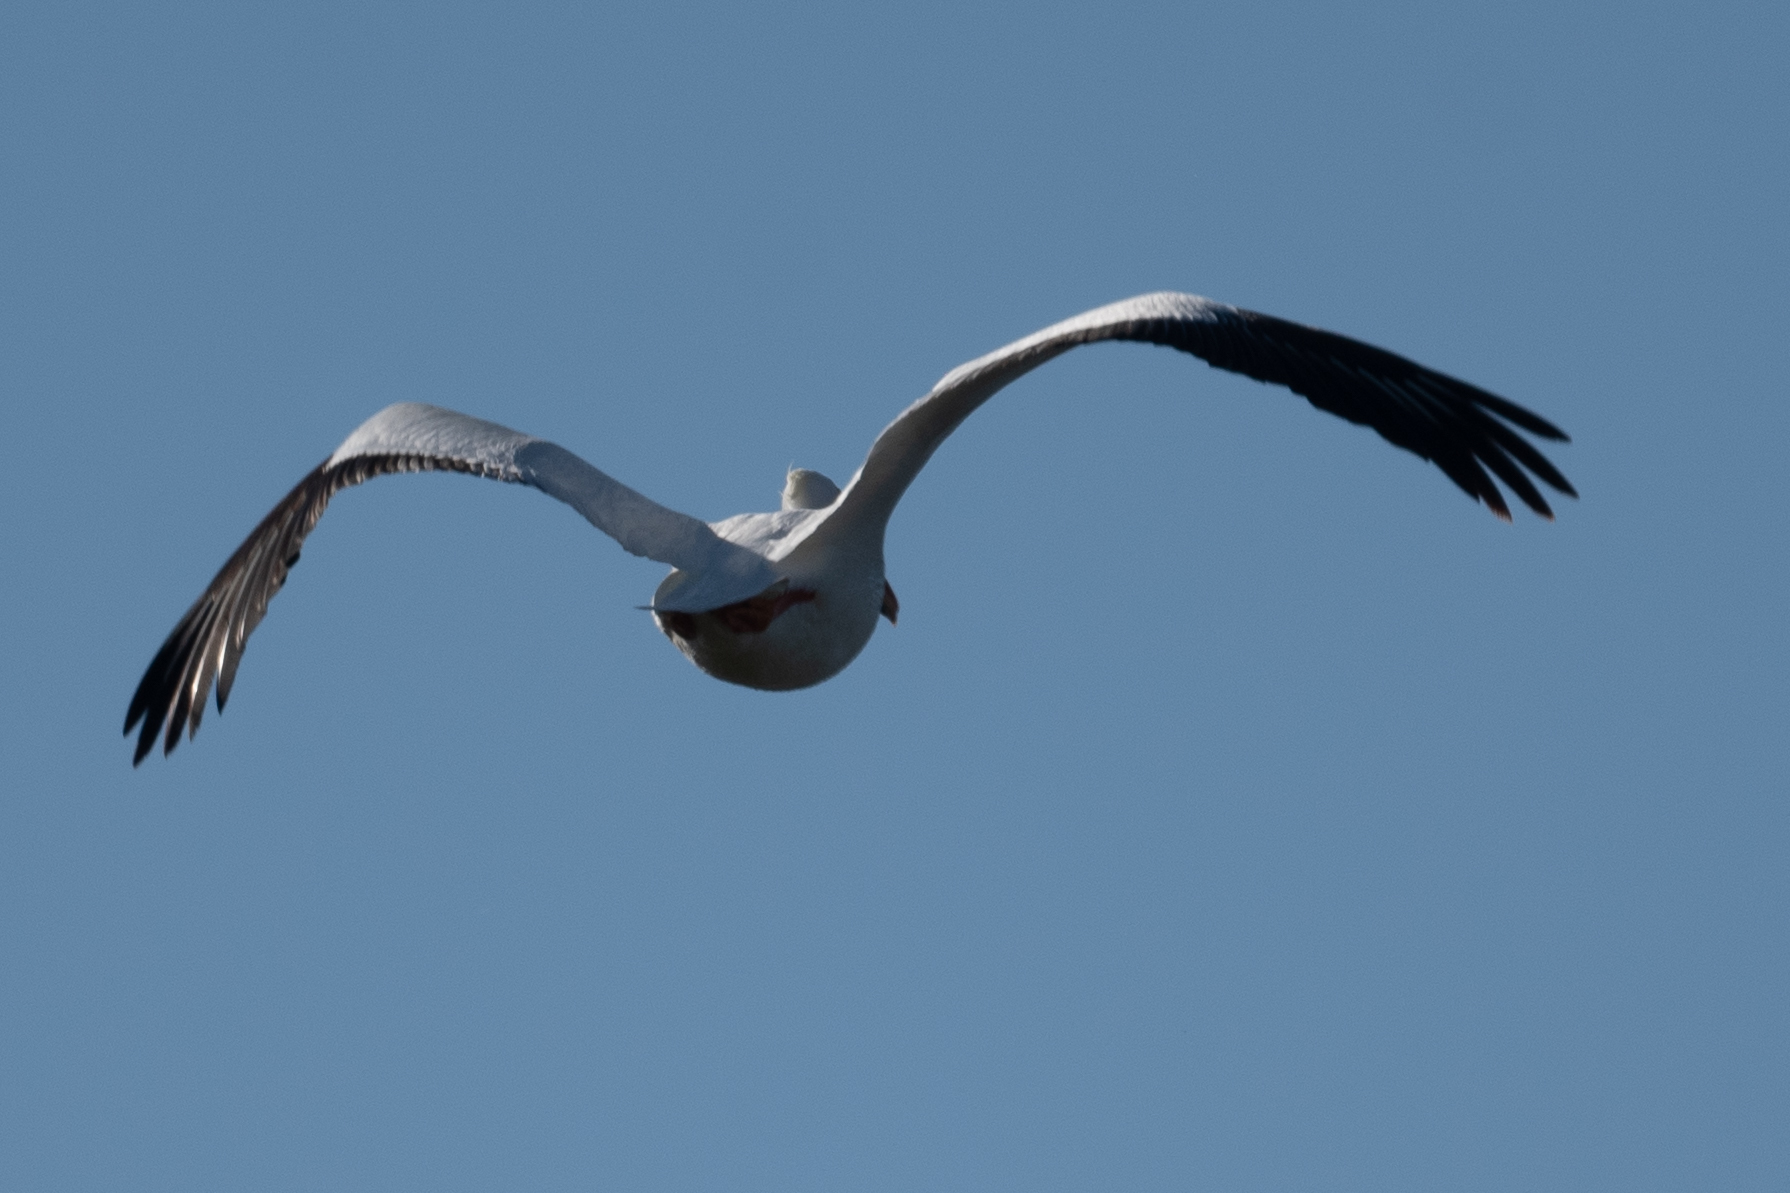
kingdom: Animalia
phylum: Chordata
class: Aves
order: Pelecaniformes
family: Pelecanidae
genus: Pelecanus
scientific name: Pelecanus erythrorhynchos
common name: American white pelican
